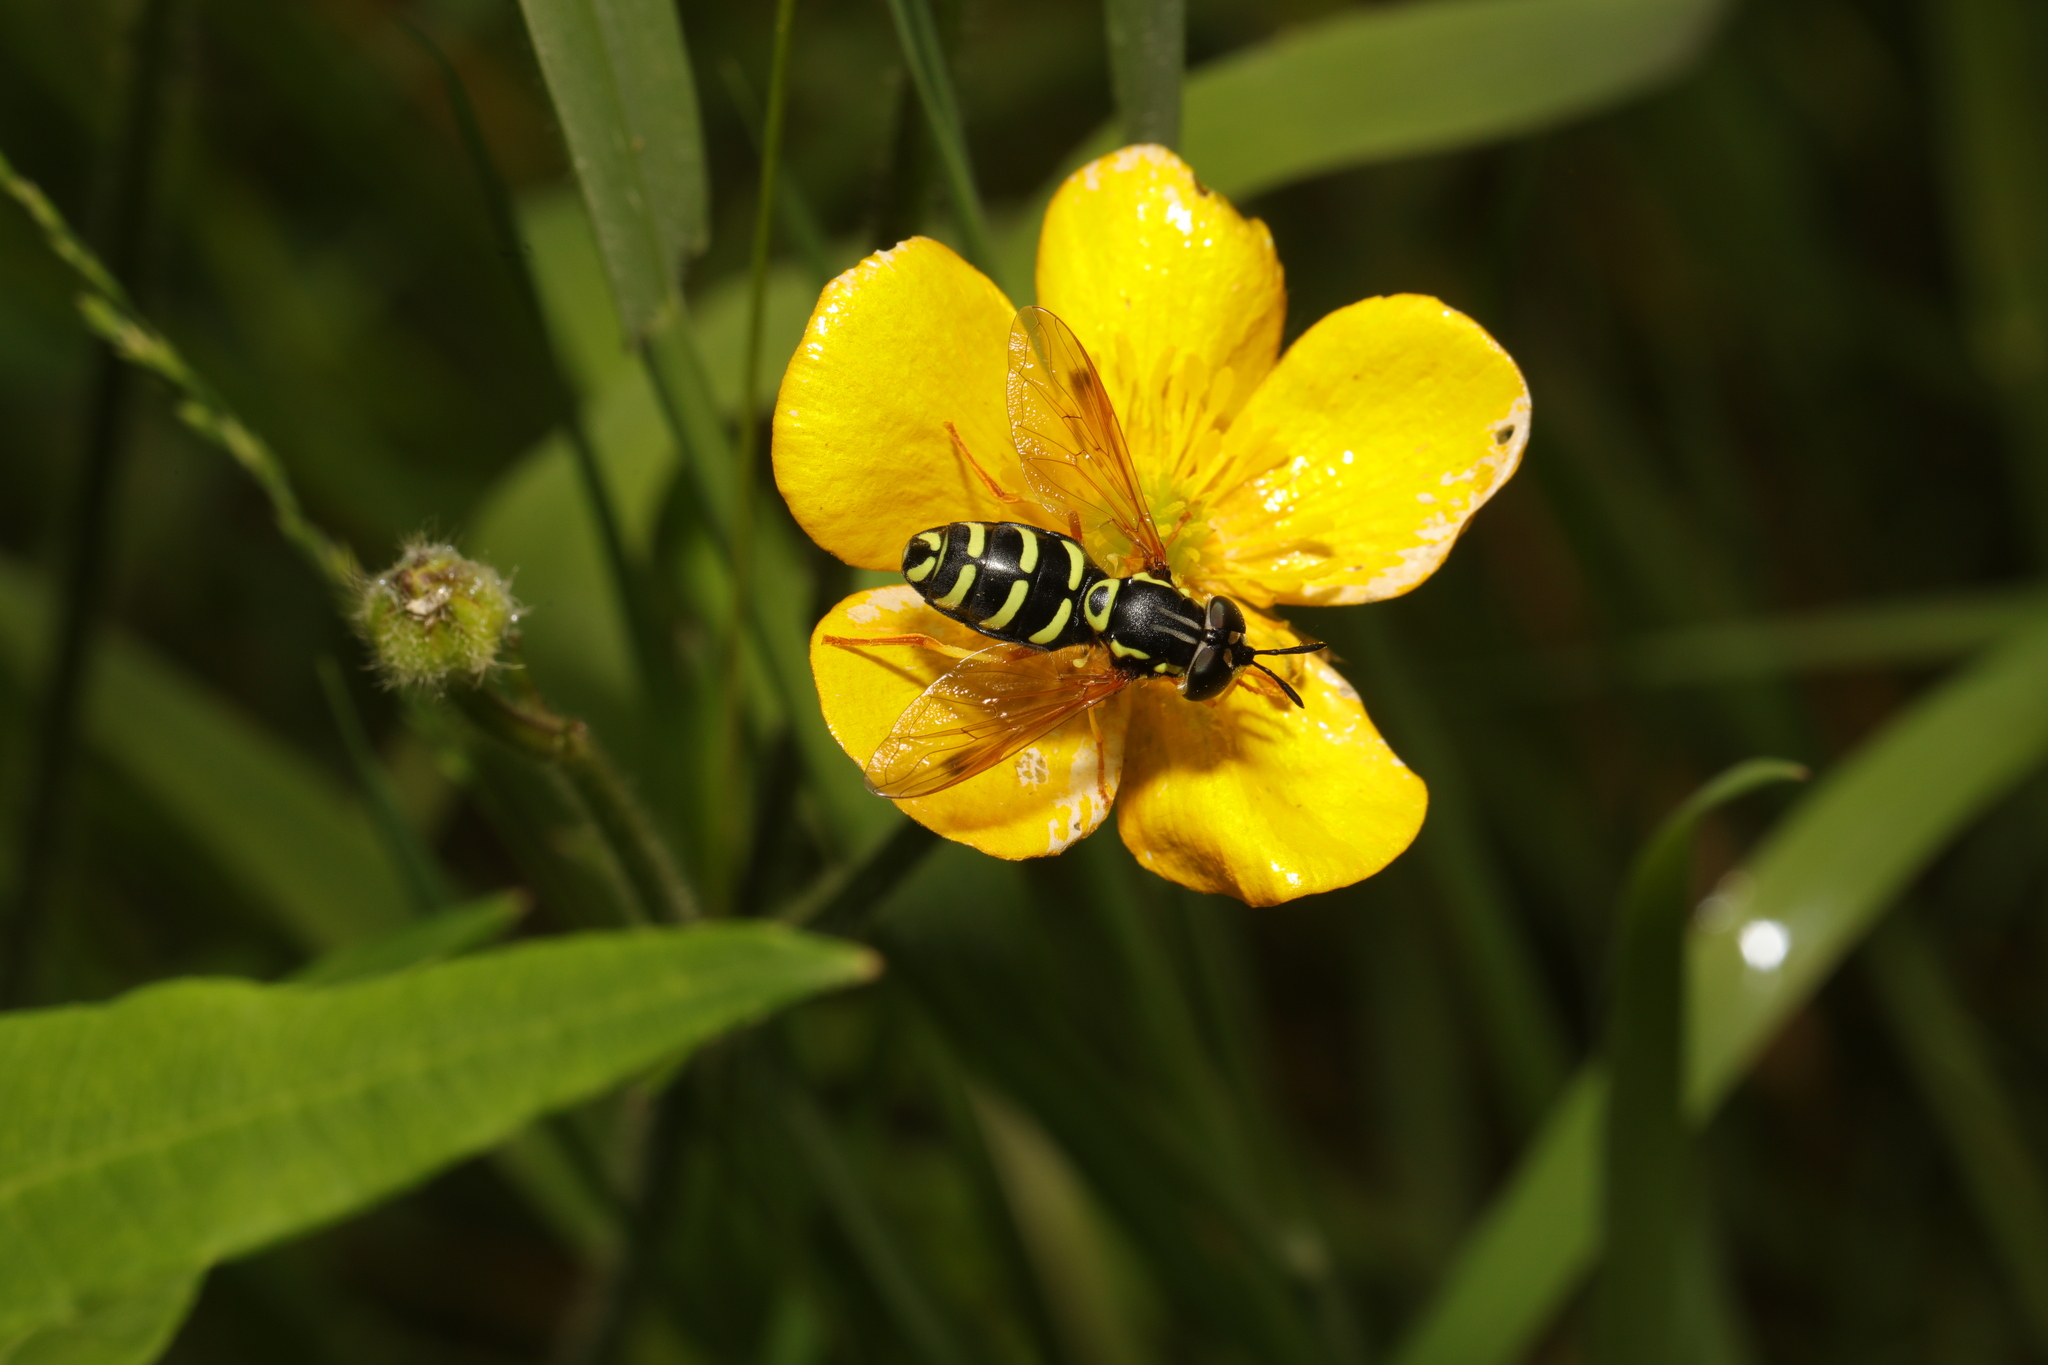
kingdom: Animalia
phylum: Arthropoda
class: Insecta
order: Diptera
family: Syrphidae
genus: Chrysotoxum
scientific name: Chrysotoxum festivum
